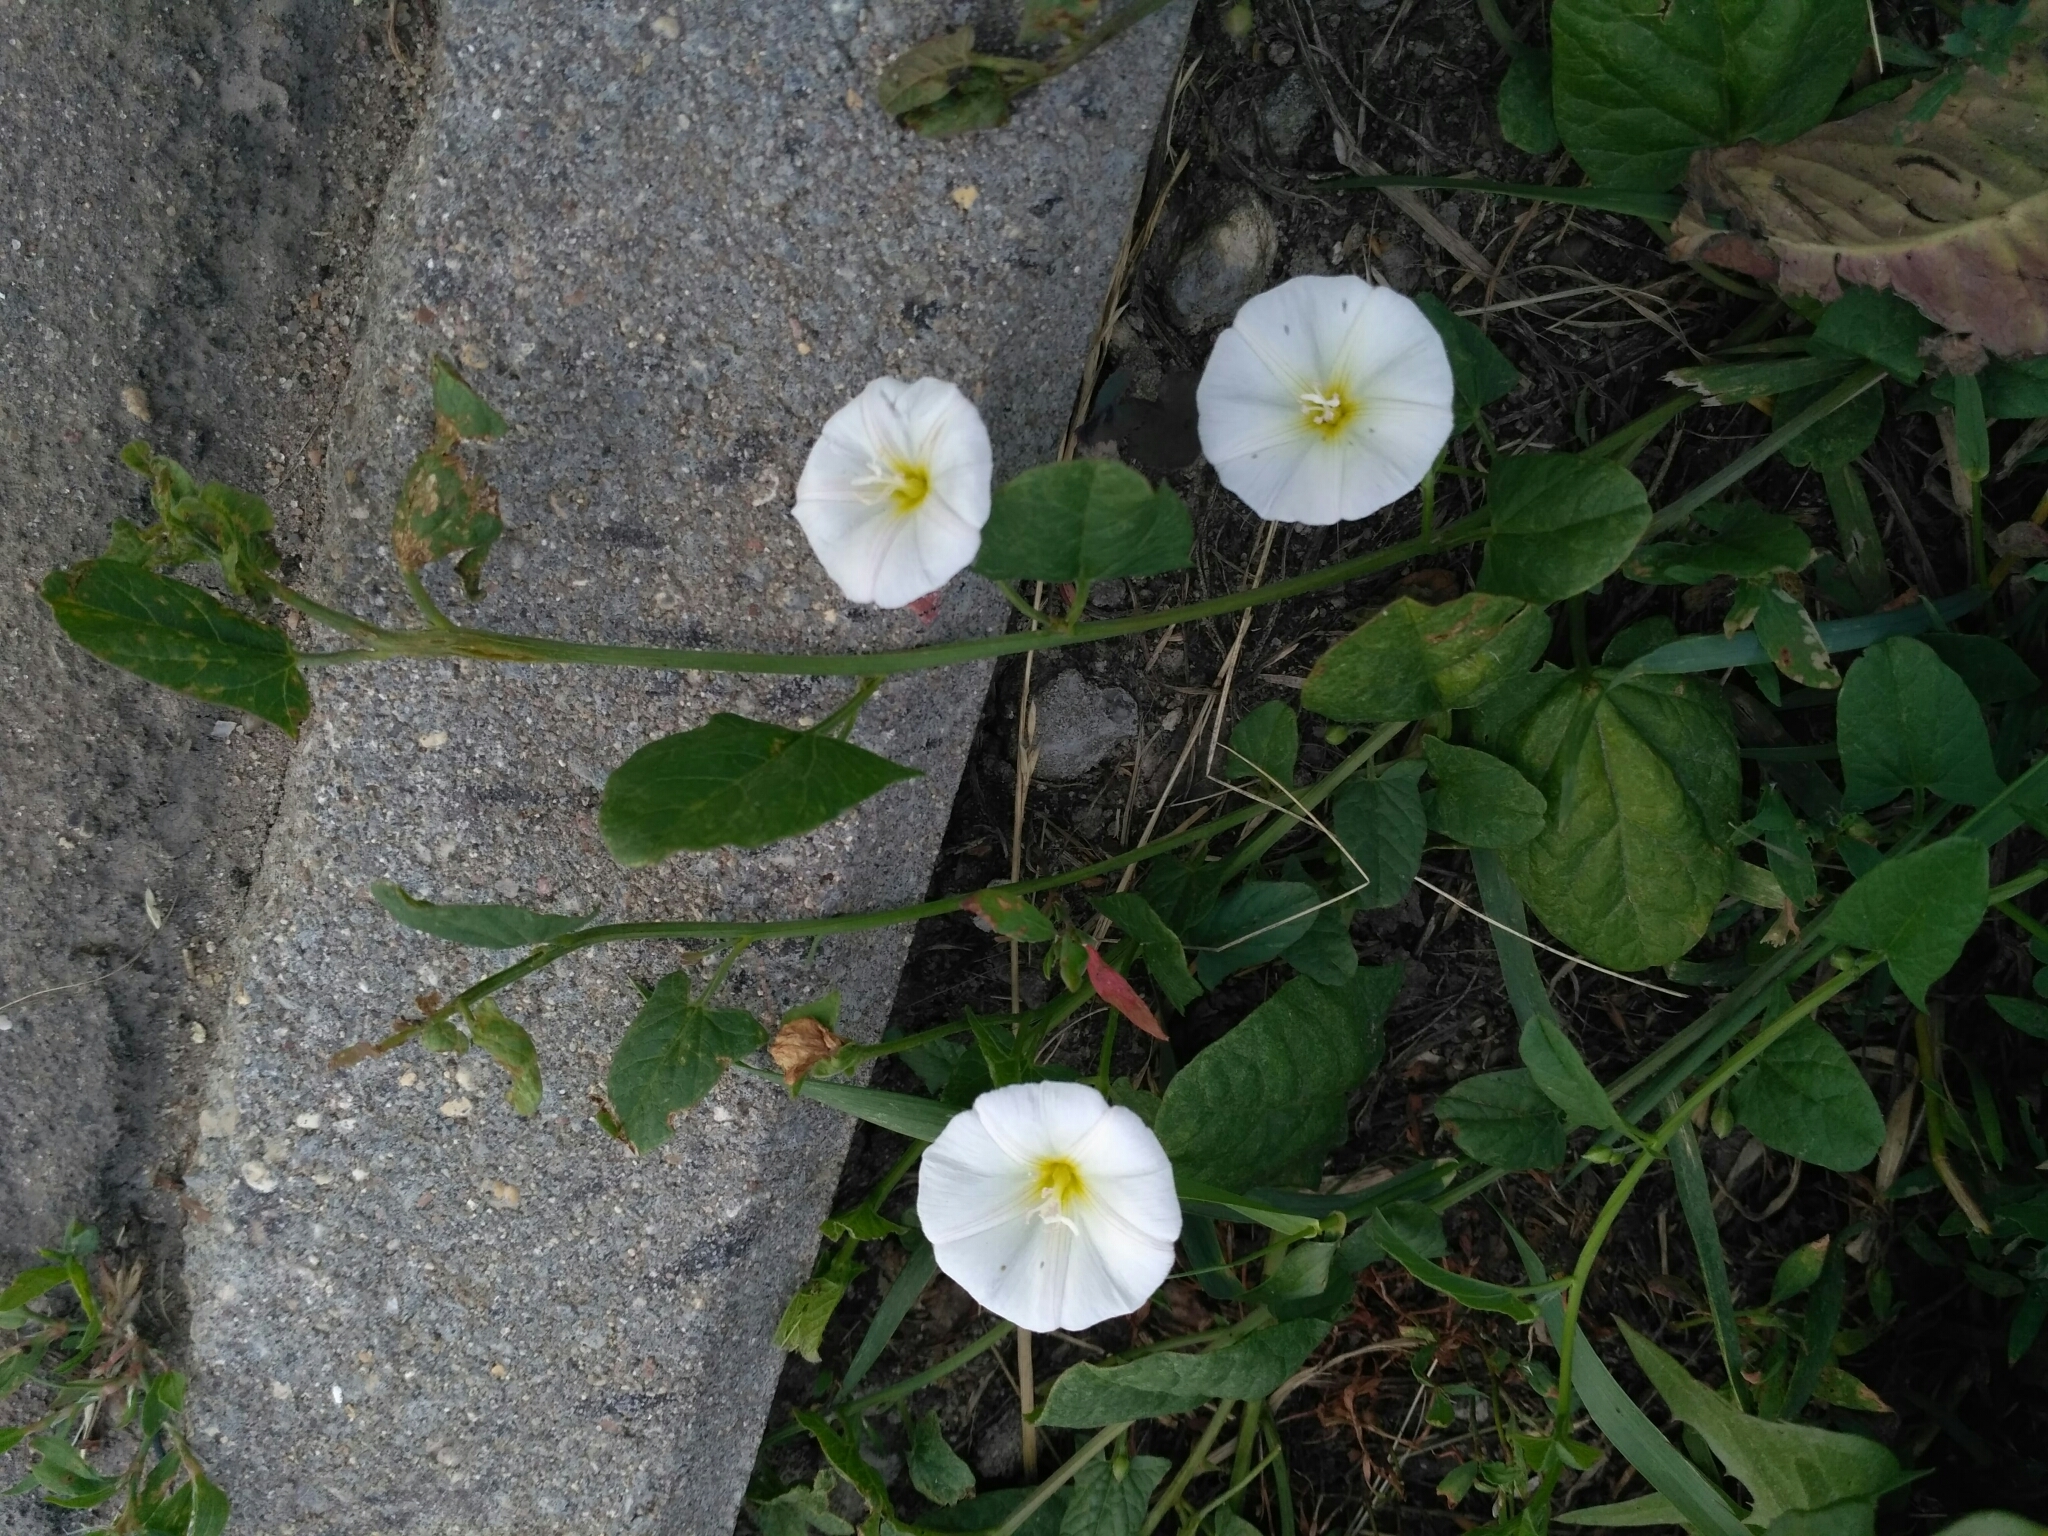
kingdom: Plantae
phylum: Tracheophyta
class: Magnoliopsida
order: Solanales
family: Convolvulaceae
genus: Convolvulus
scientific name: Convolvulus arvensis
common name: Field bindweed
